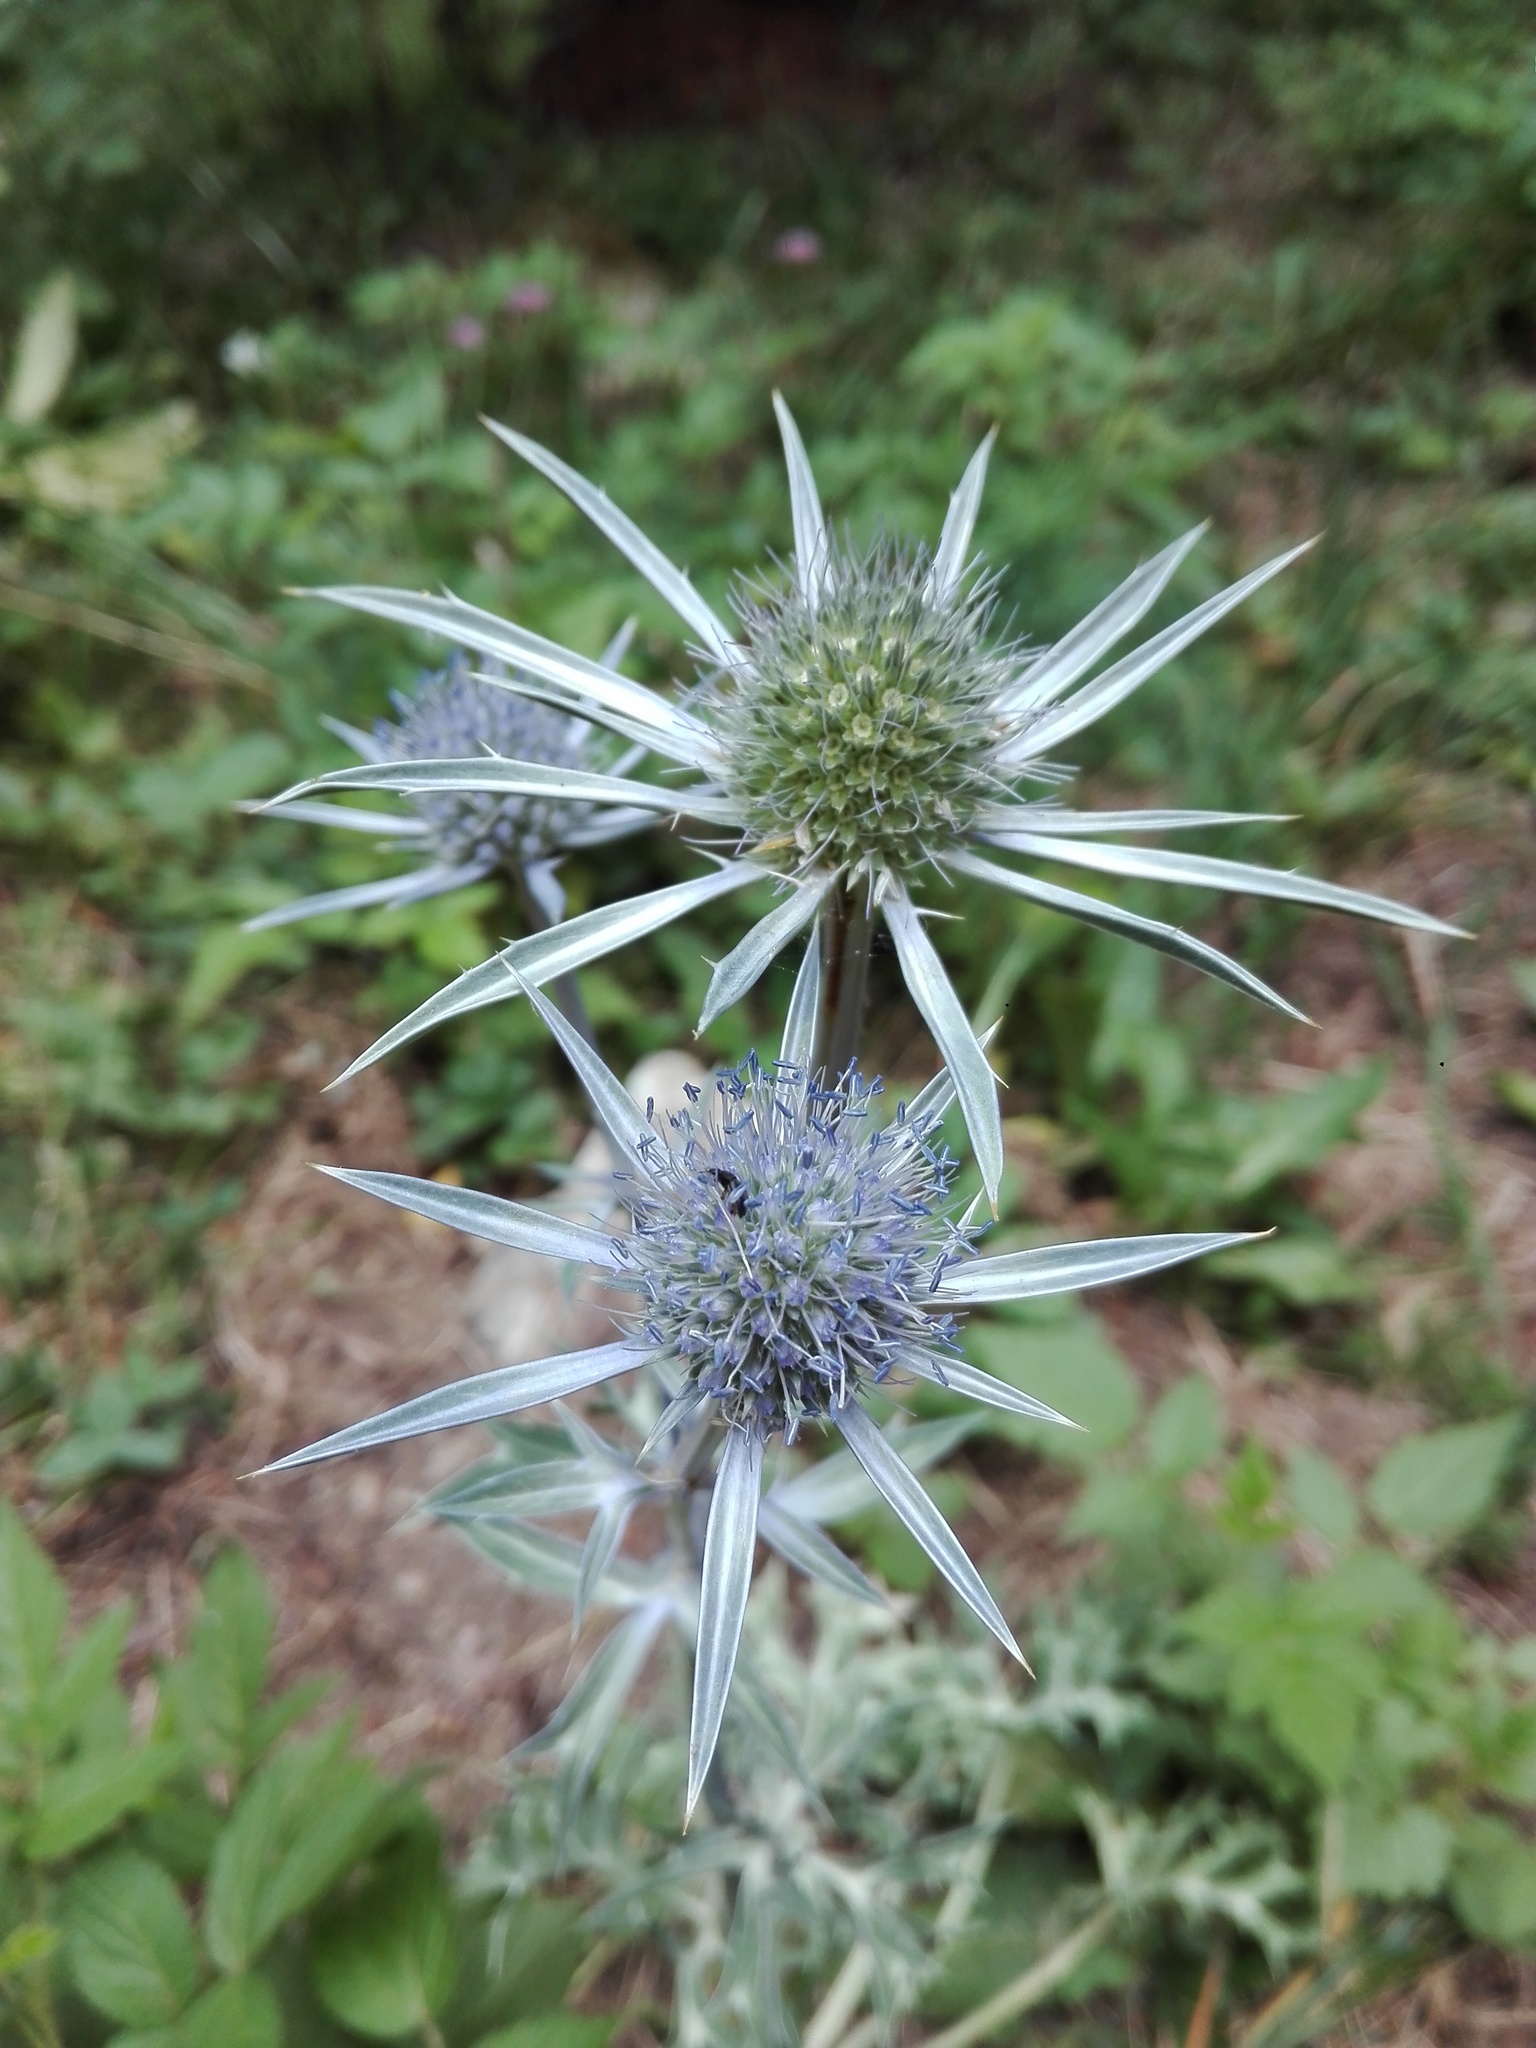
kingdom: Plantae
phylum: Tracheophyta
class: Magnoliopsida
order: Apiales
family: Apiaceae
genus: Eryngium
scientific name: Eryngium bourgatii
